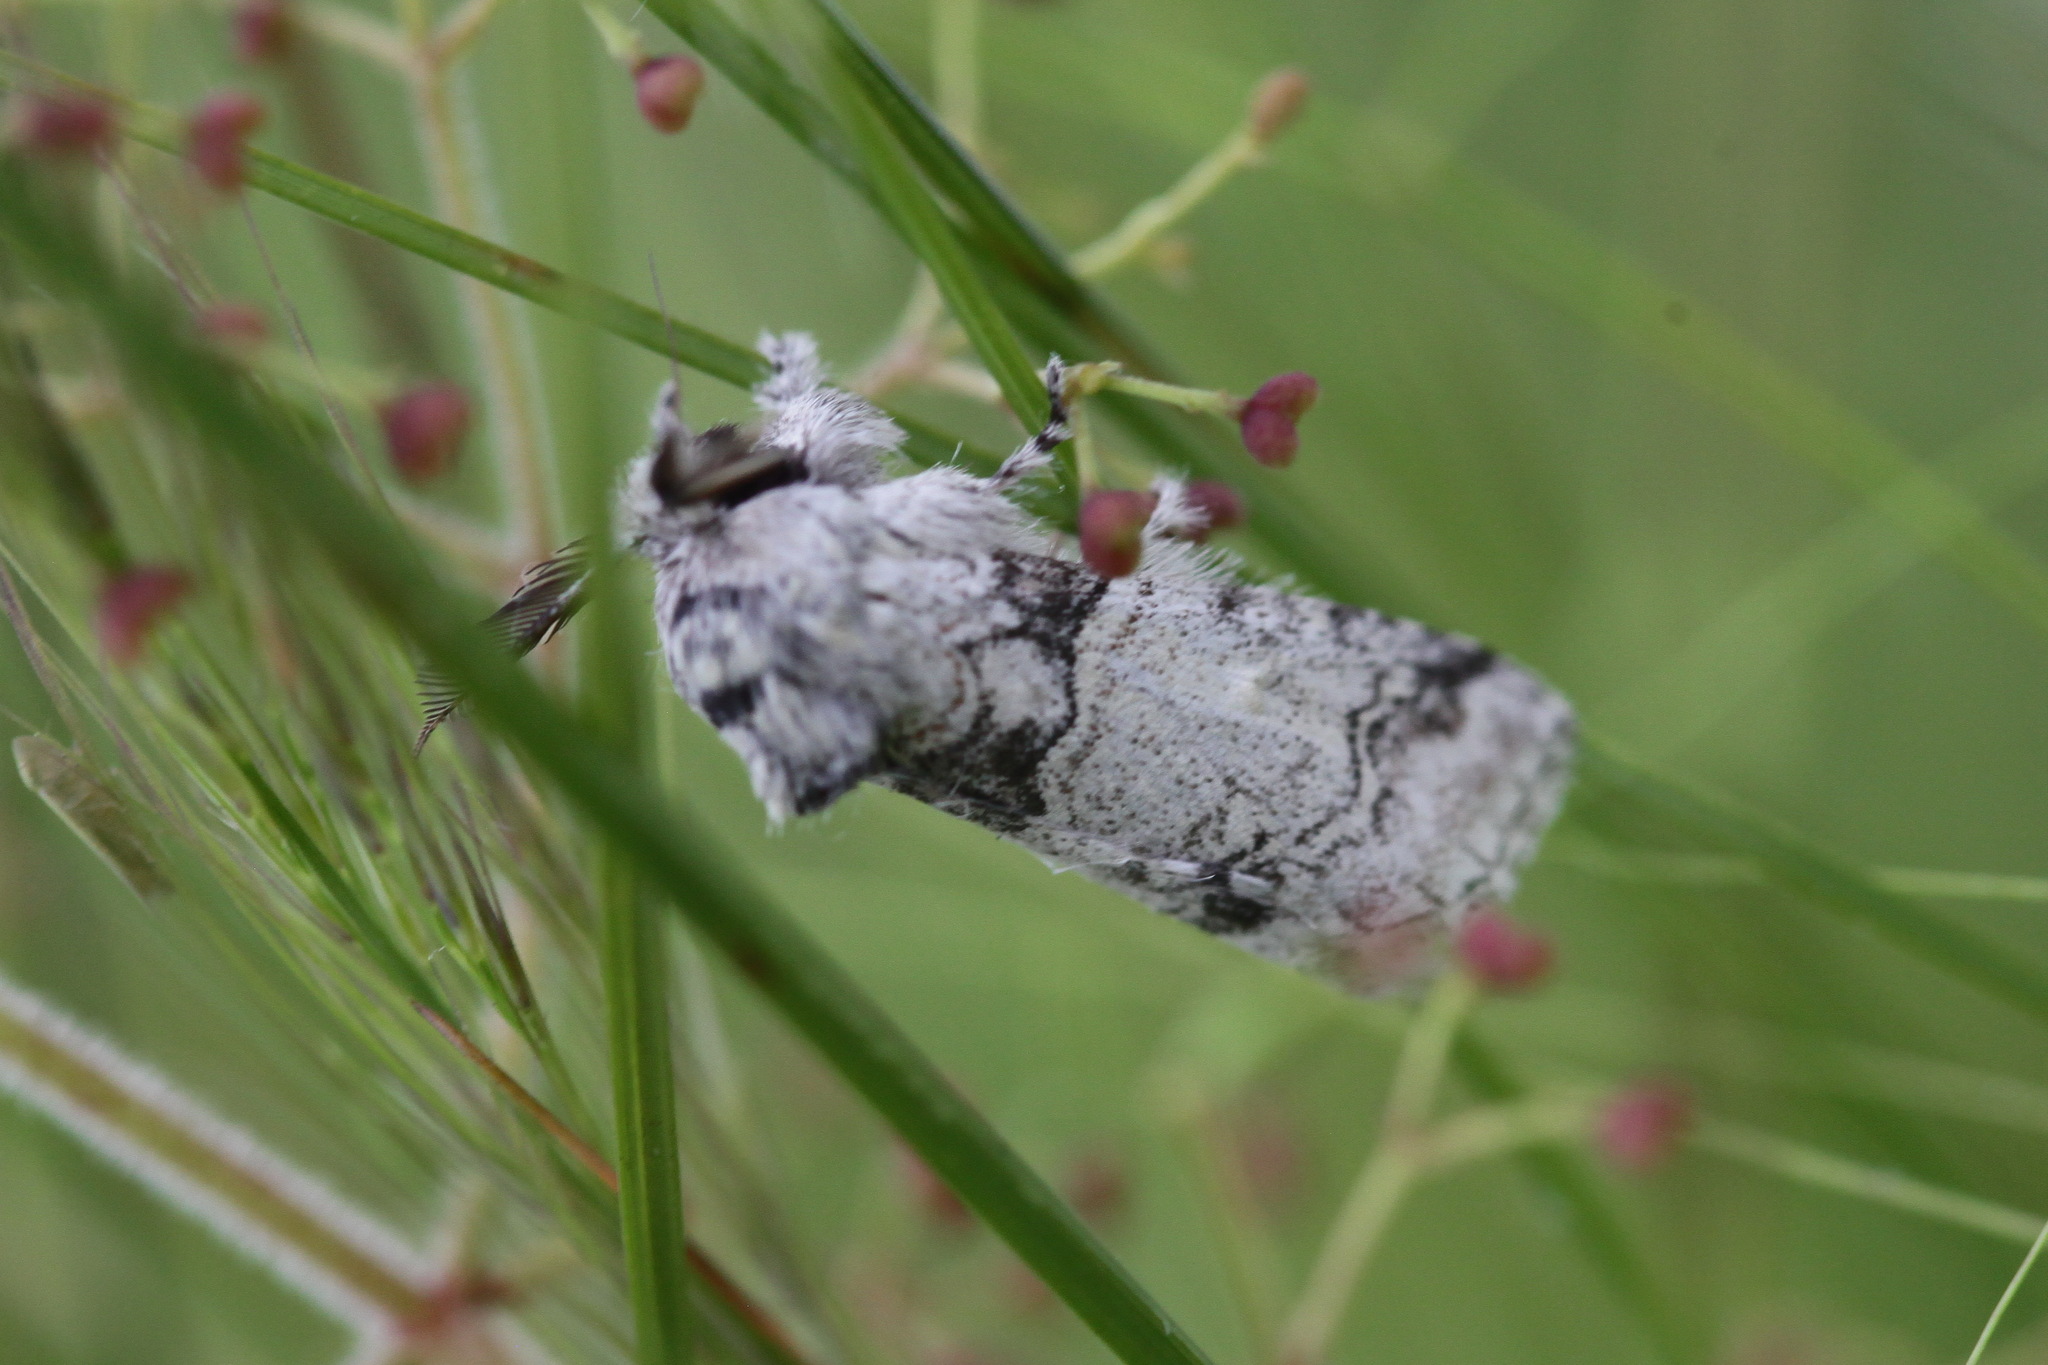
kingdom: Animalia
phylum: Arthropoda
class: Insecta
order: Lepidoptera
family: Notodontidae
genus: Pararethona
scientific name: Pararethona hierax
